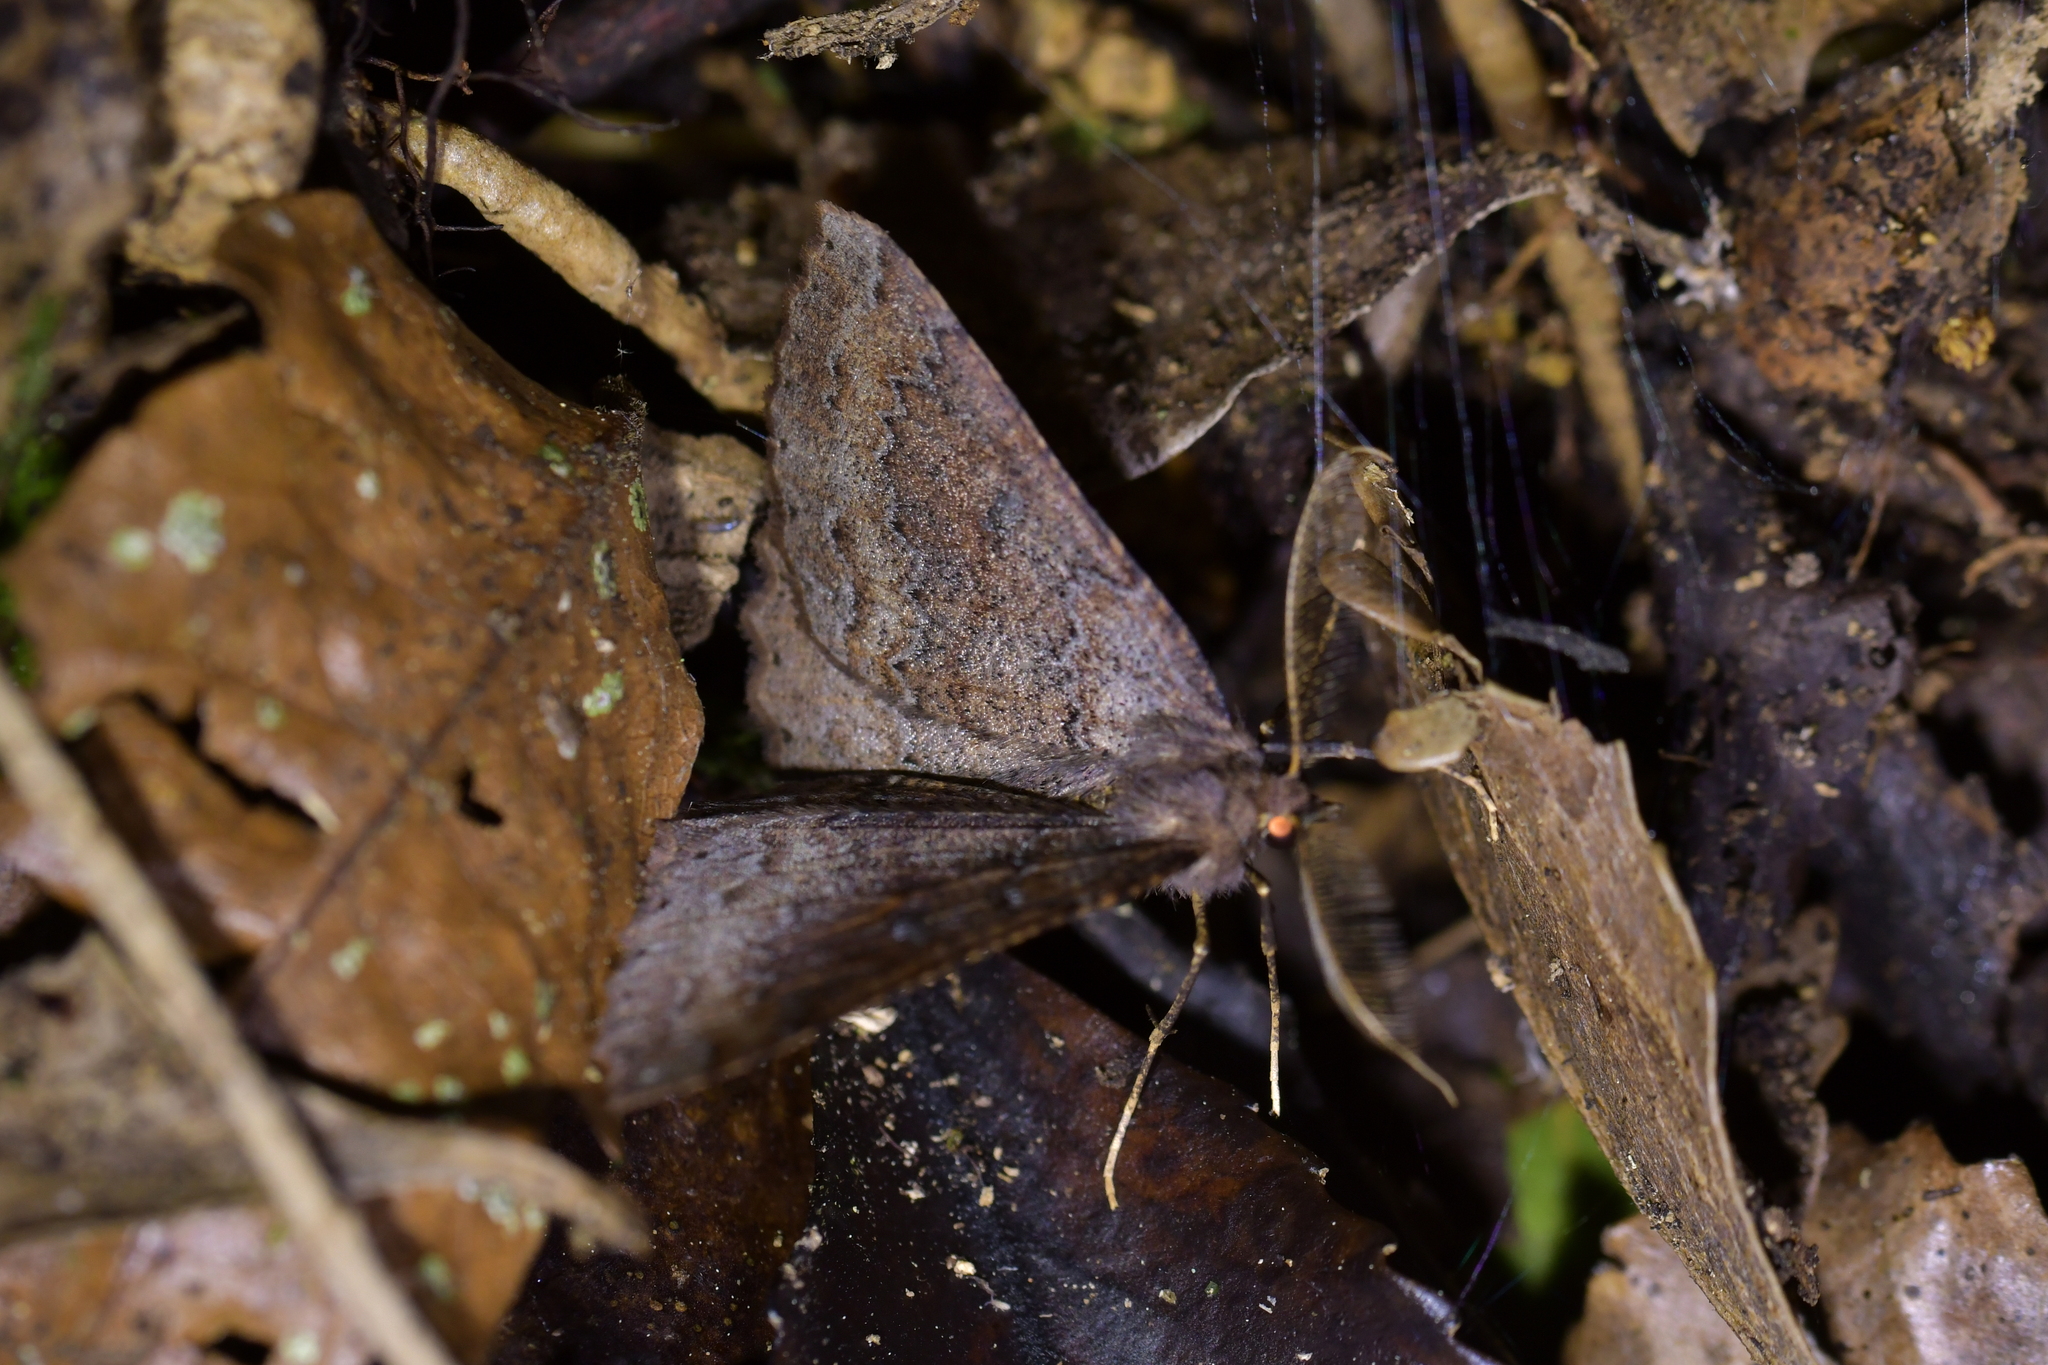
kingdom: Animalia
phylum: Arthropoda
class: Insecta
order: Lepidoptera
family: Geometridae
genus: Cleora
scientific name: Cleora scriptaria
